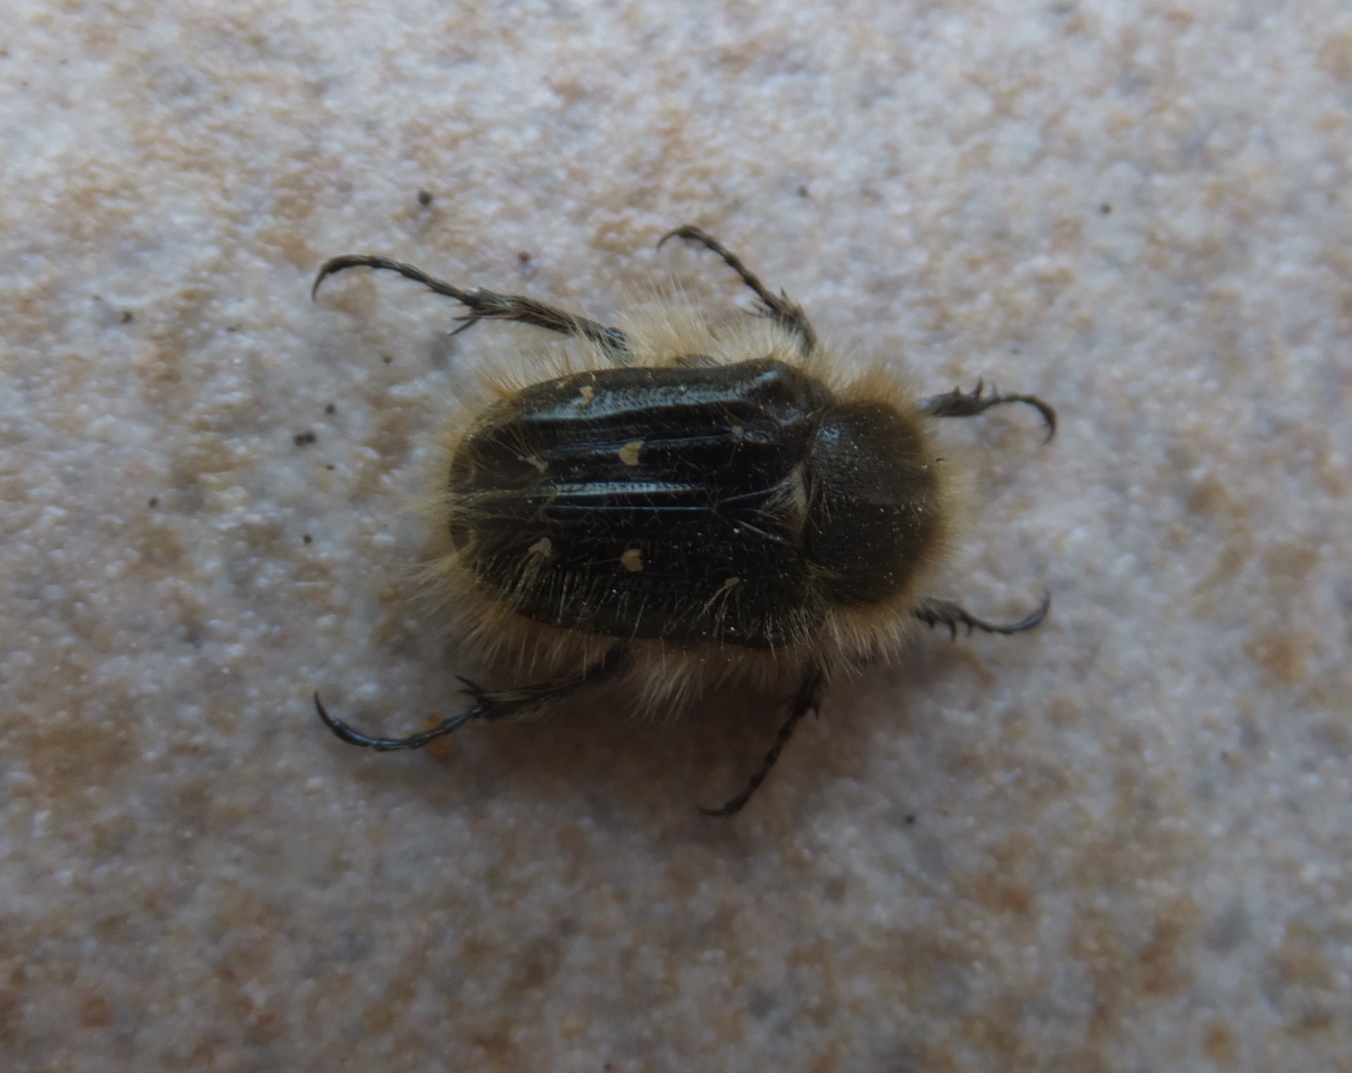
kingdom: Animalia
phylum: Arthropoda
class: Insecta
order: Coleoptera
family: Scarabaeidae
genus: Tropinota
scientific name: Tropinota squalida
